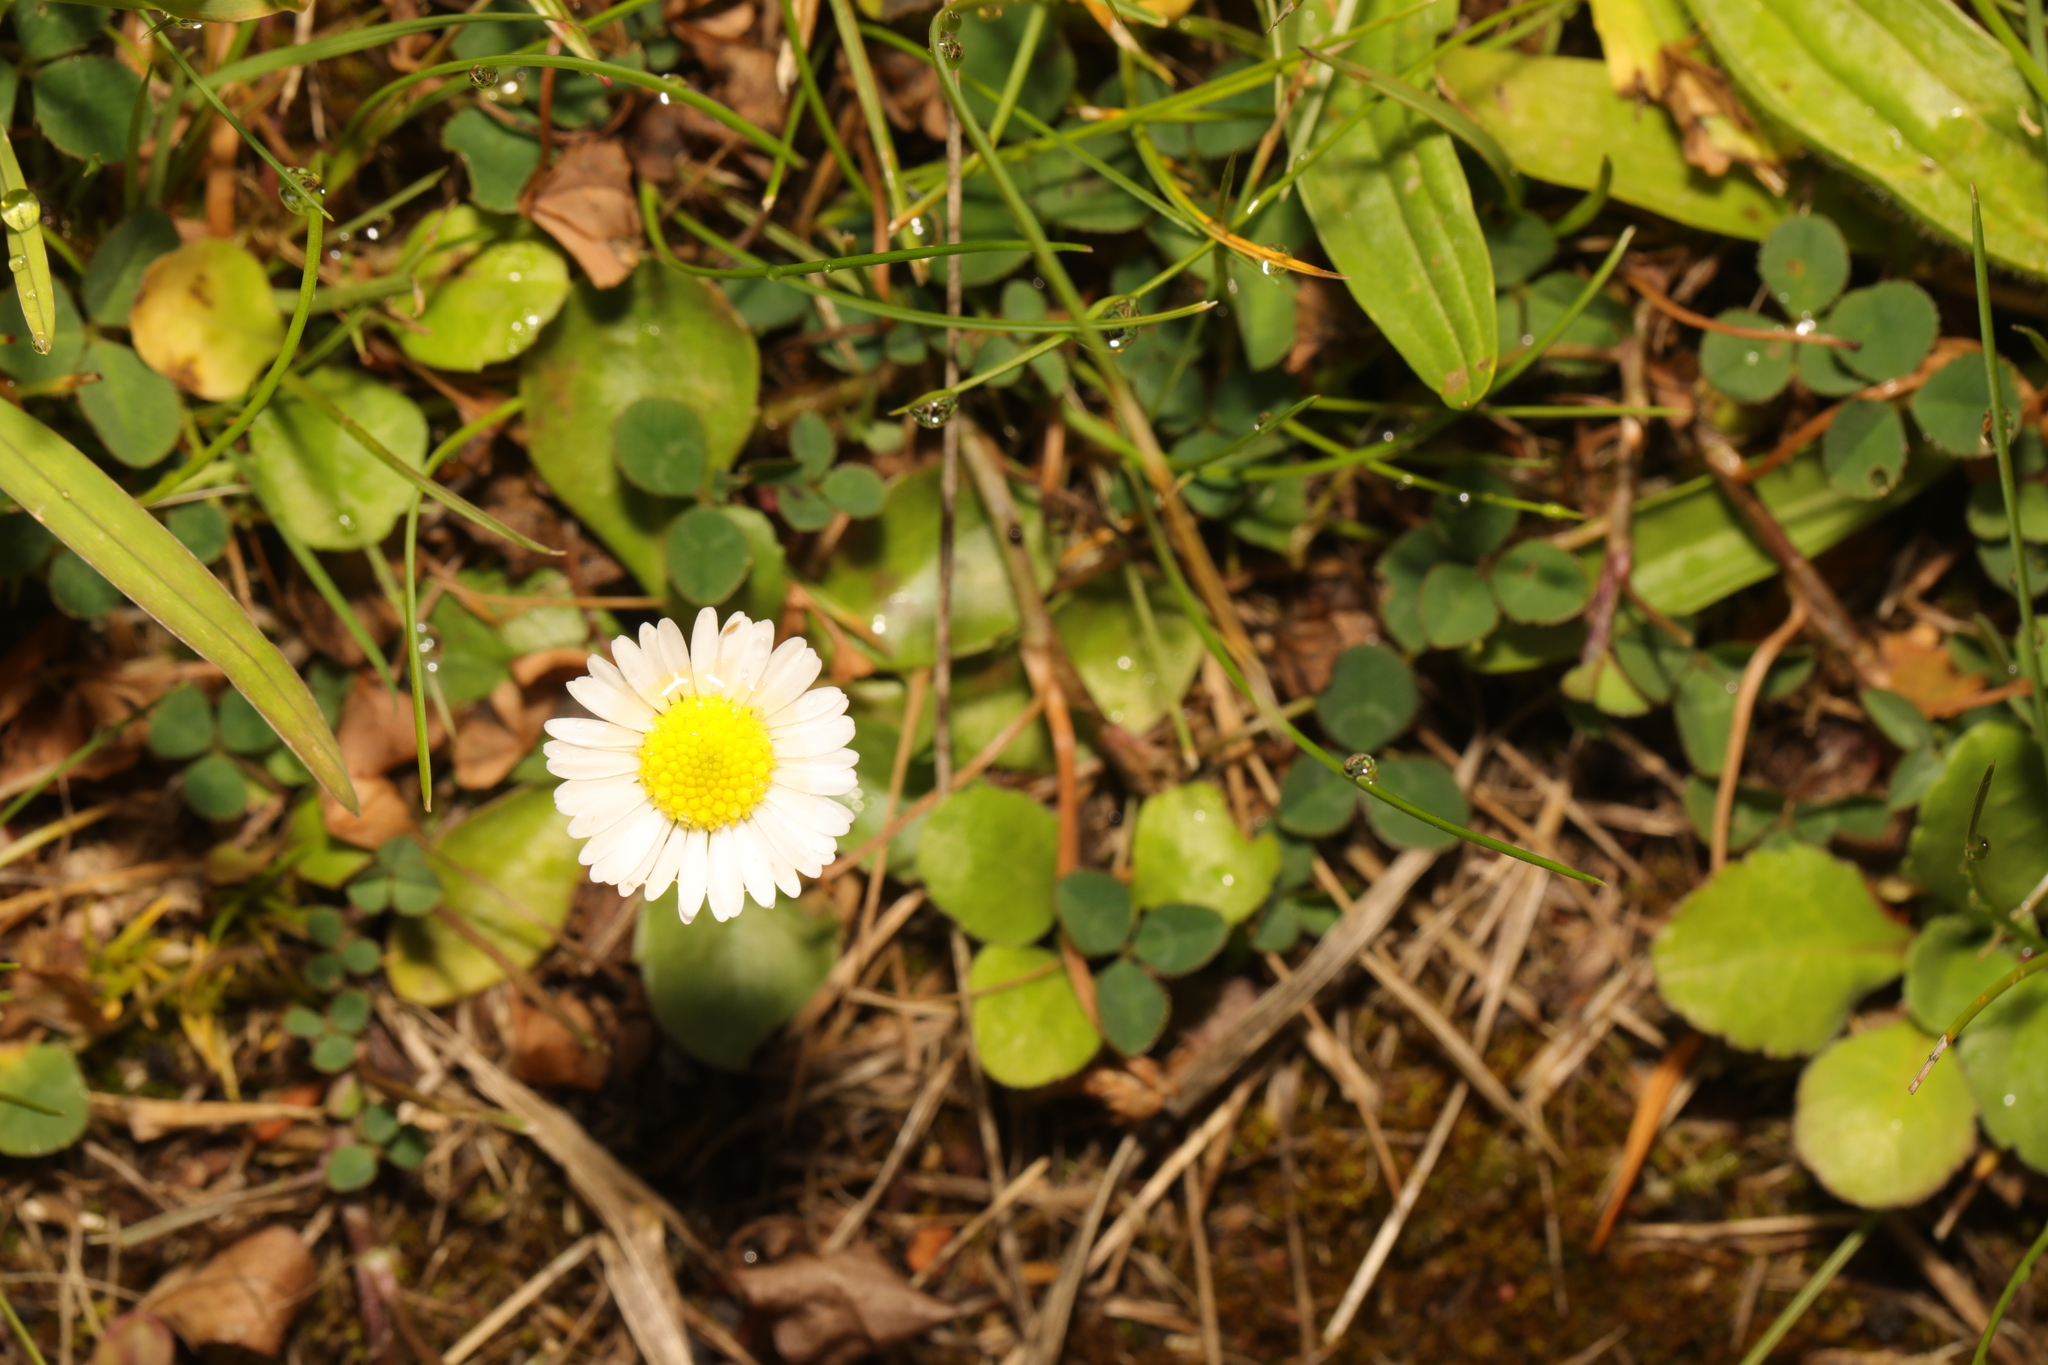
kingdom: Plantae
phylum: Tracheophyta
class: Magnoliopsida
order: Asterales
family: Asteraceae
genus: Bellis
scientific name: Bellis perennis
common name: Lawndaisy
